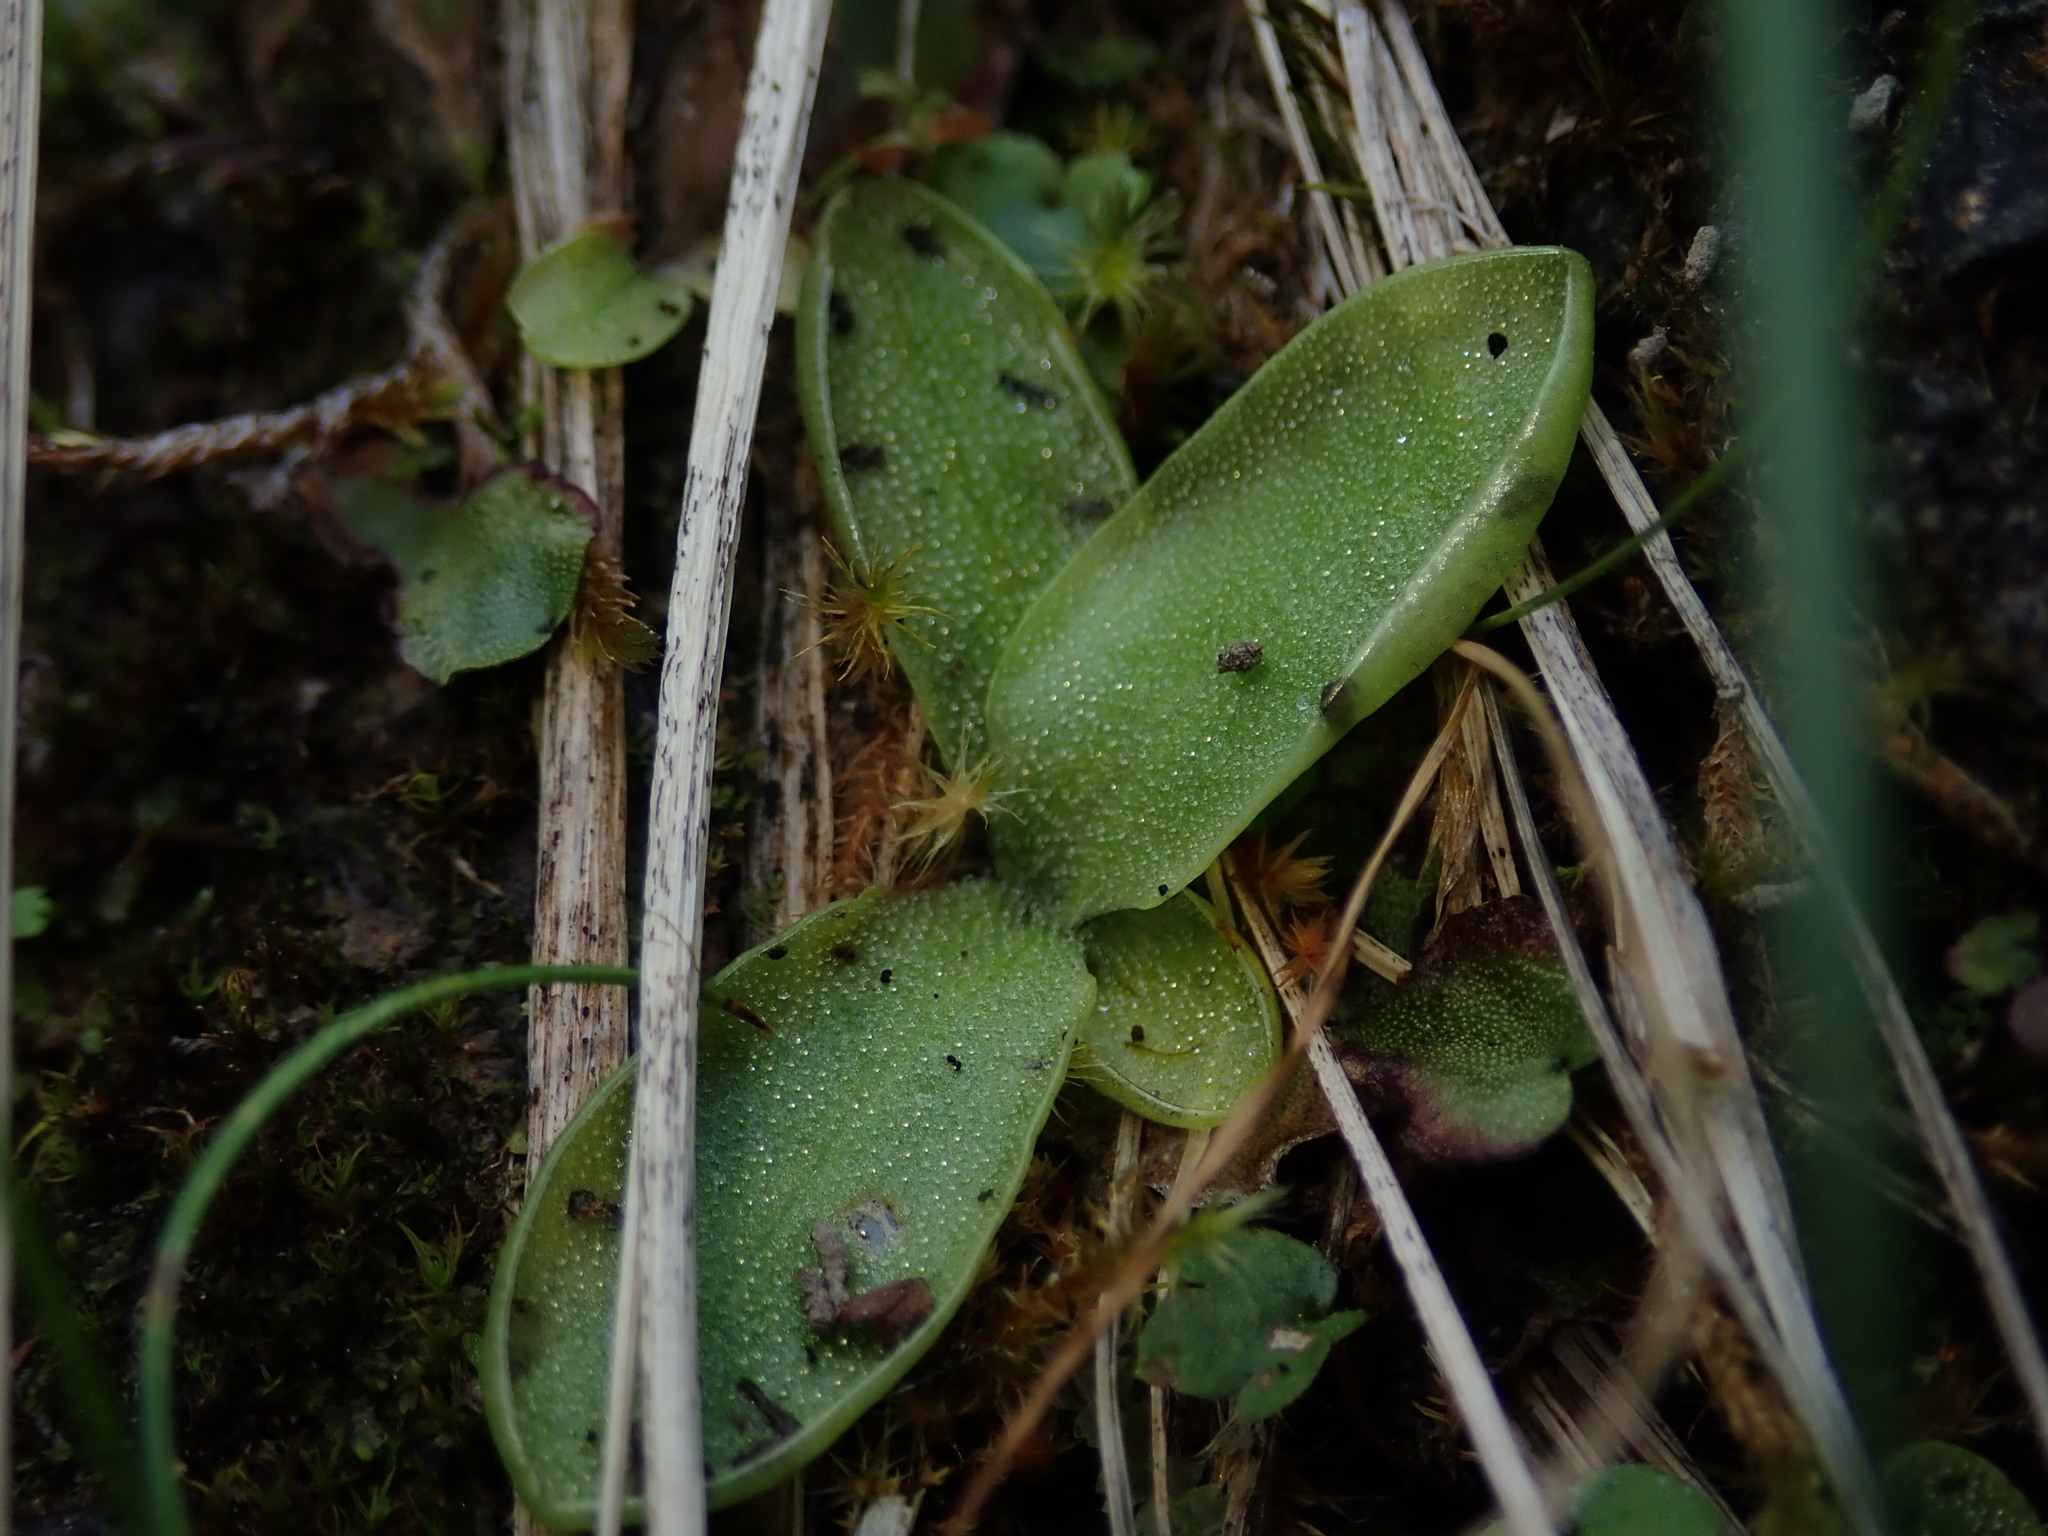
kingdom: Plantae
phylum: Tracheophyta
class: Magnoliopsida
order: Lamiales
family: Lentibulariaceae
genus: Pinguicula
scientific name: Pinguicula vulgaris
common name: Common butterwort
